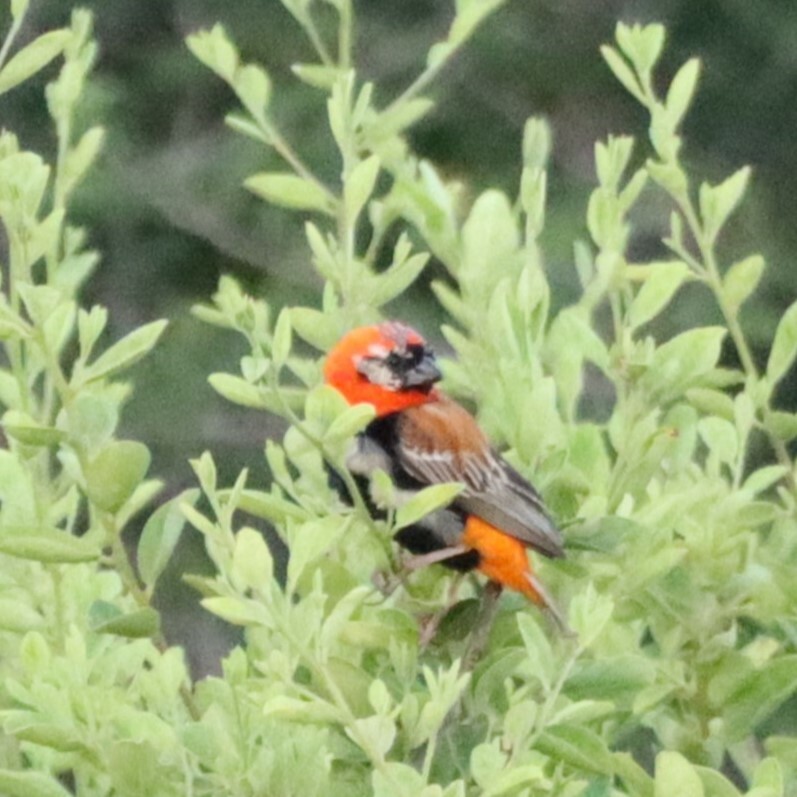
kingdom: Animalia
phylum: Chordata
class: Aves
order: Passeriformes
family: Ploceidae
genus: Euplectes
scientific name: Euplectes orix
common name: Southern red bishop
